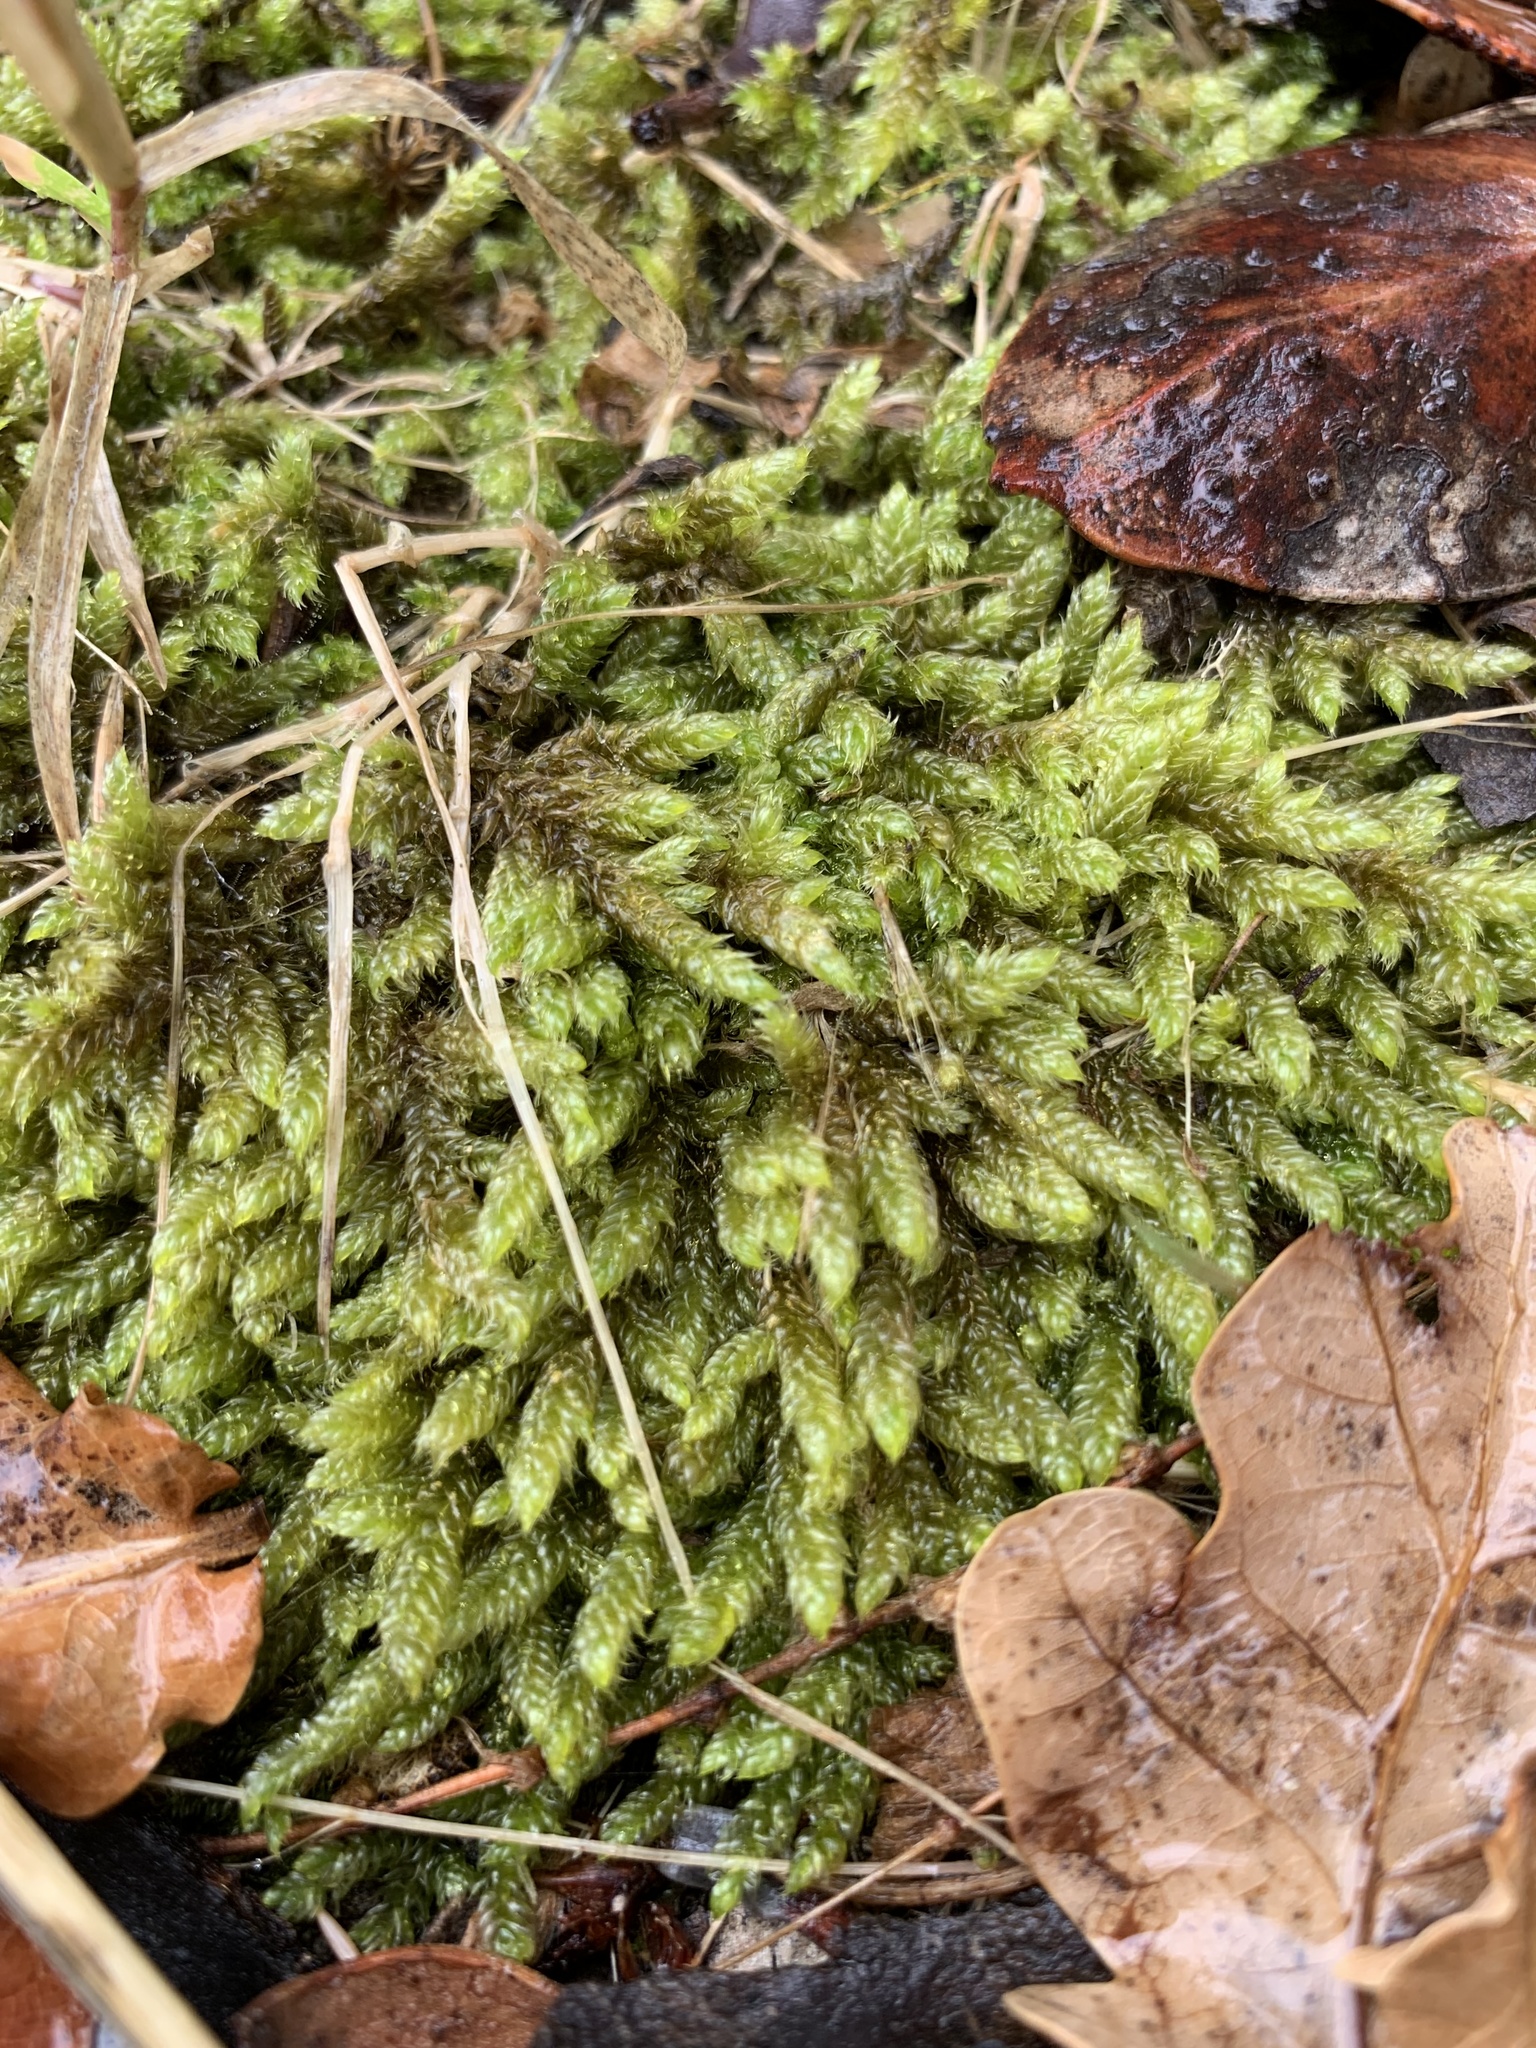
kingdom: Plantae
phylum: Bryophyta
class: Bryopsida
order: Hypnales
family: Hypnaceae
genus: Hypnum
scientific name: Hypnum cupressiforme
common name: Cypress-leaved plait-moss
